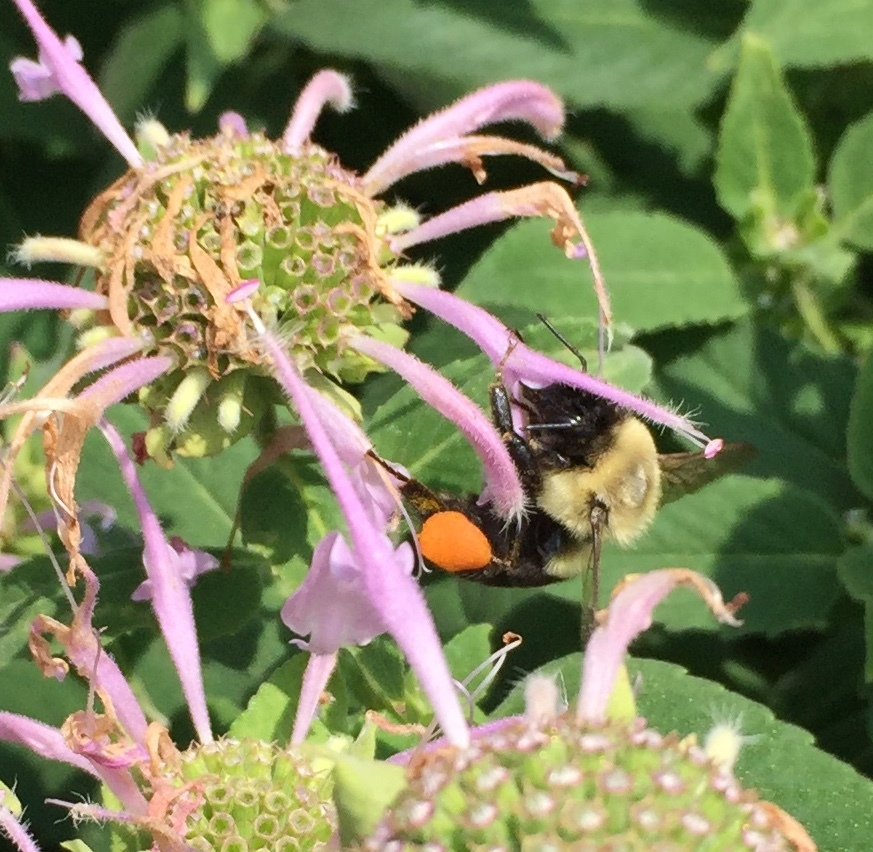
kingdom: Animalia
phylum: Arthropoda
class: Insecta
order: Hymenoptera
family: Apidae
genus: Bombus
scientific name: Bombus impatiens
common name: Common eastern bumble bee
